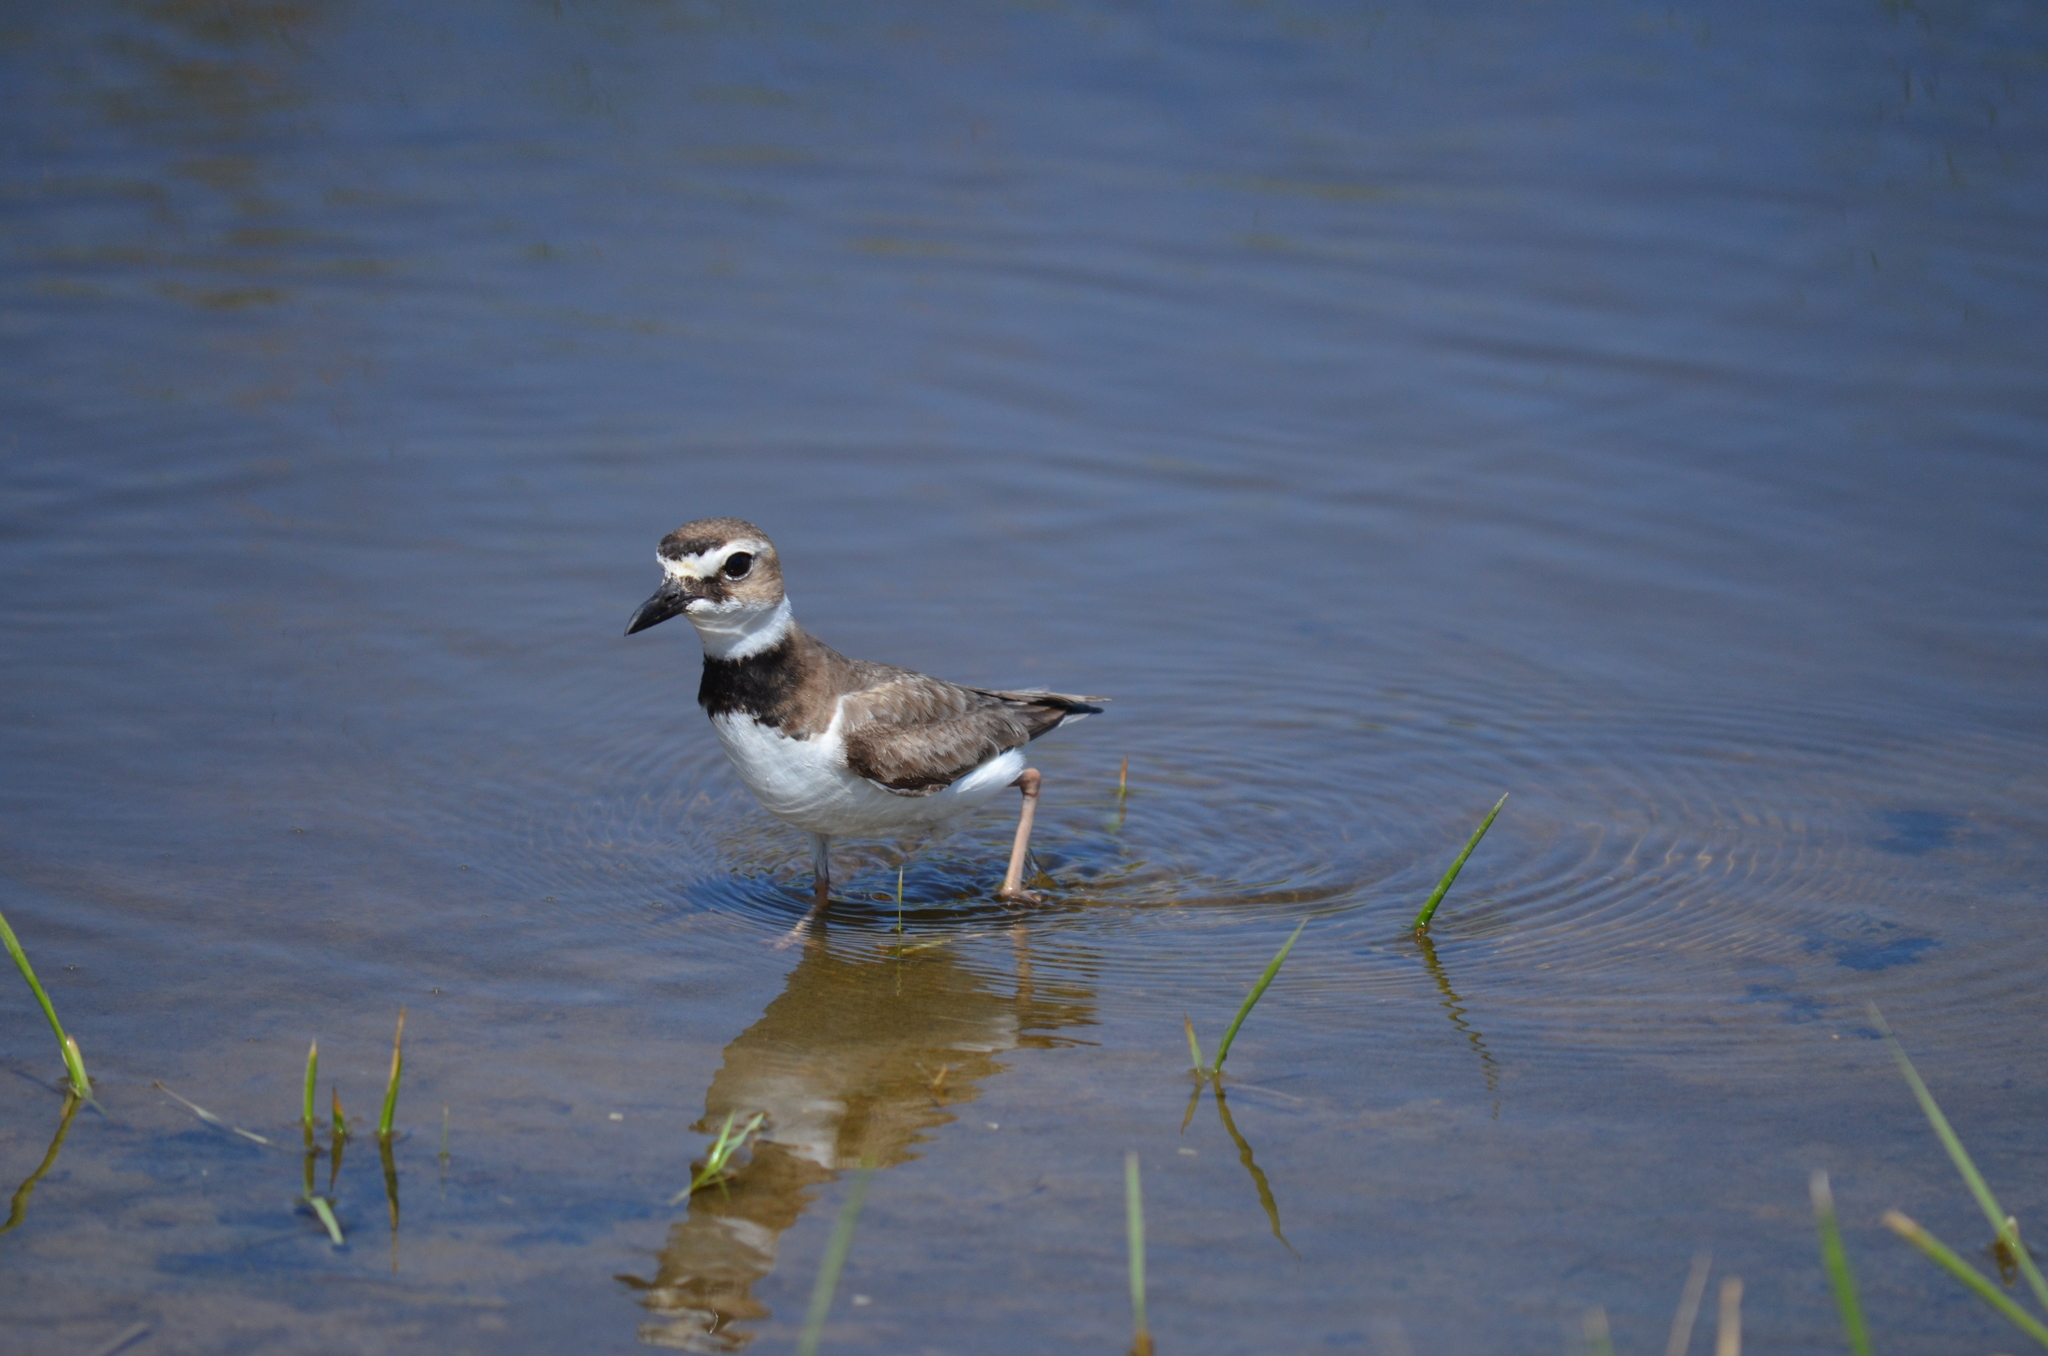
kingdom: Animalia
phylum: Chordata
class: Aves
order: Charadriiformes
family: Charadriidae
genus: Anarhynchus
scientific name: Anarhynchus
